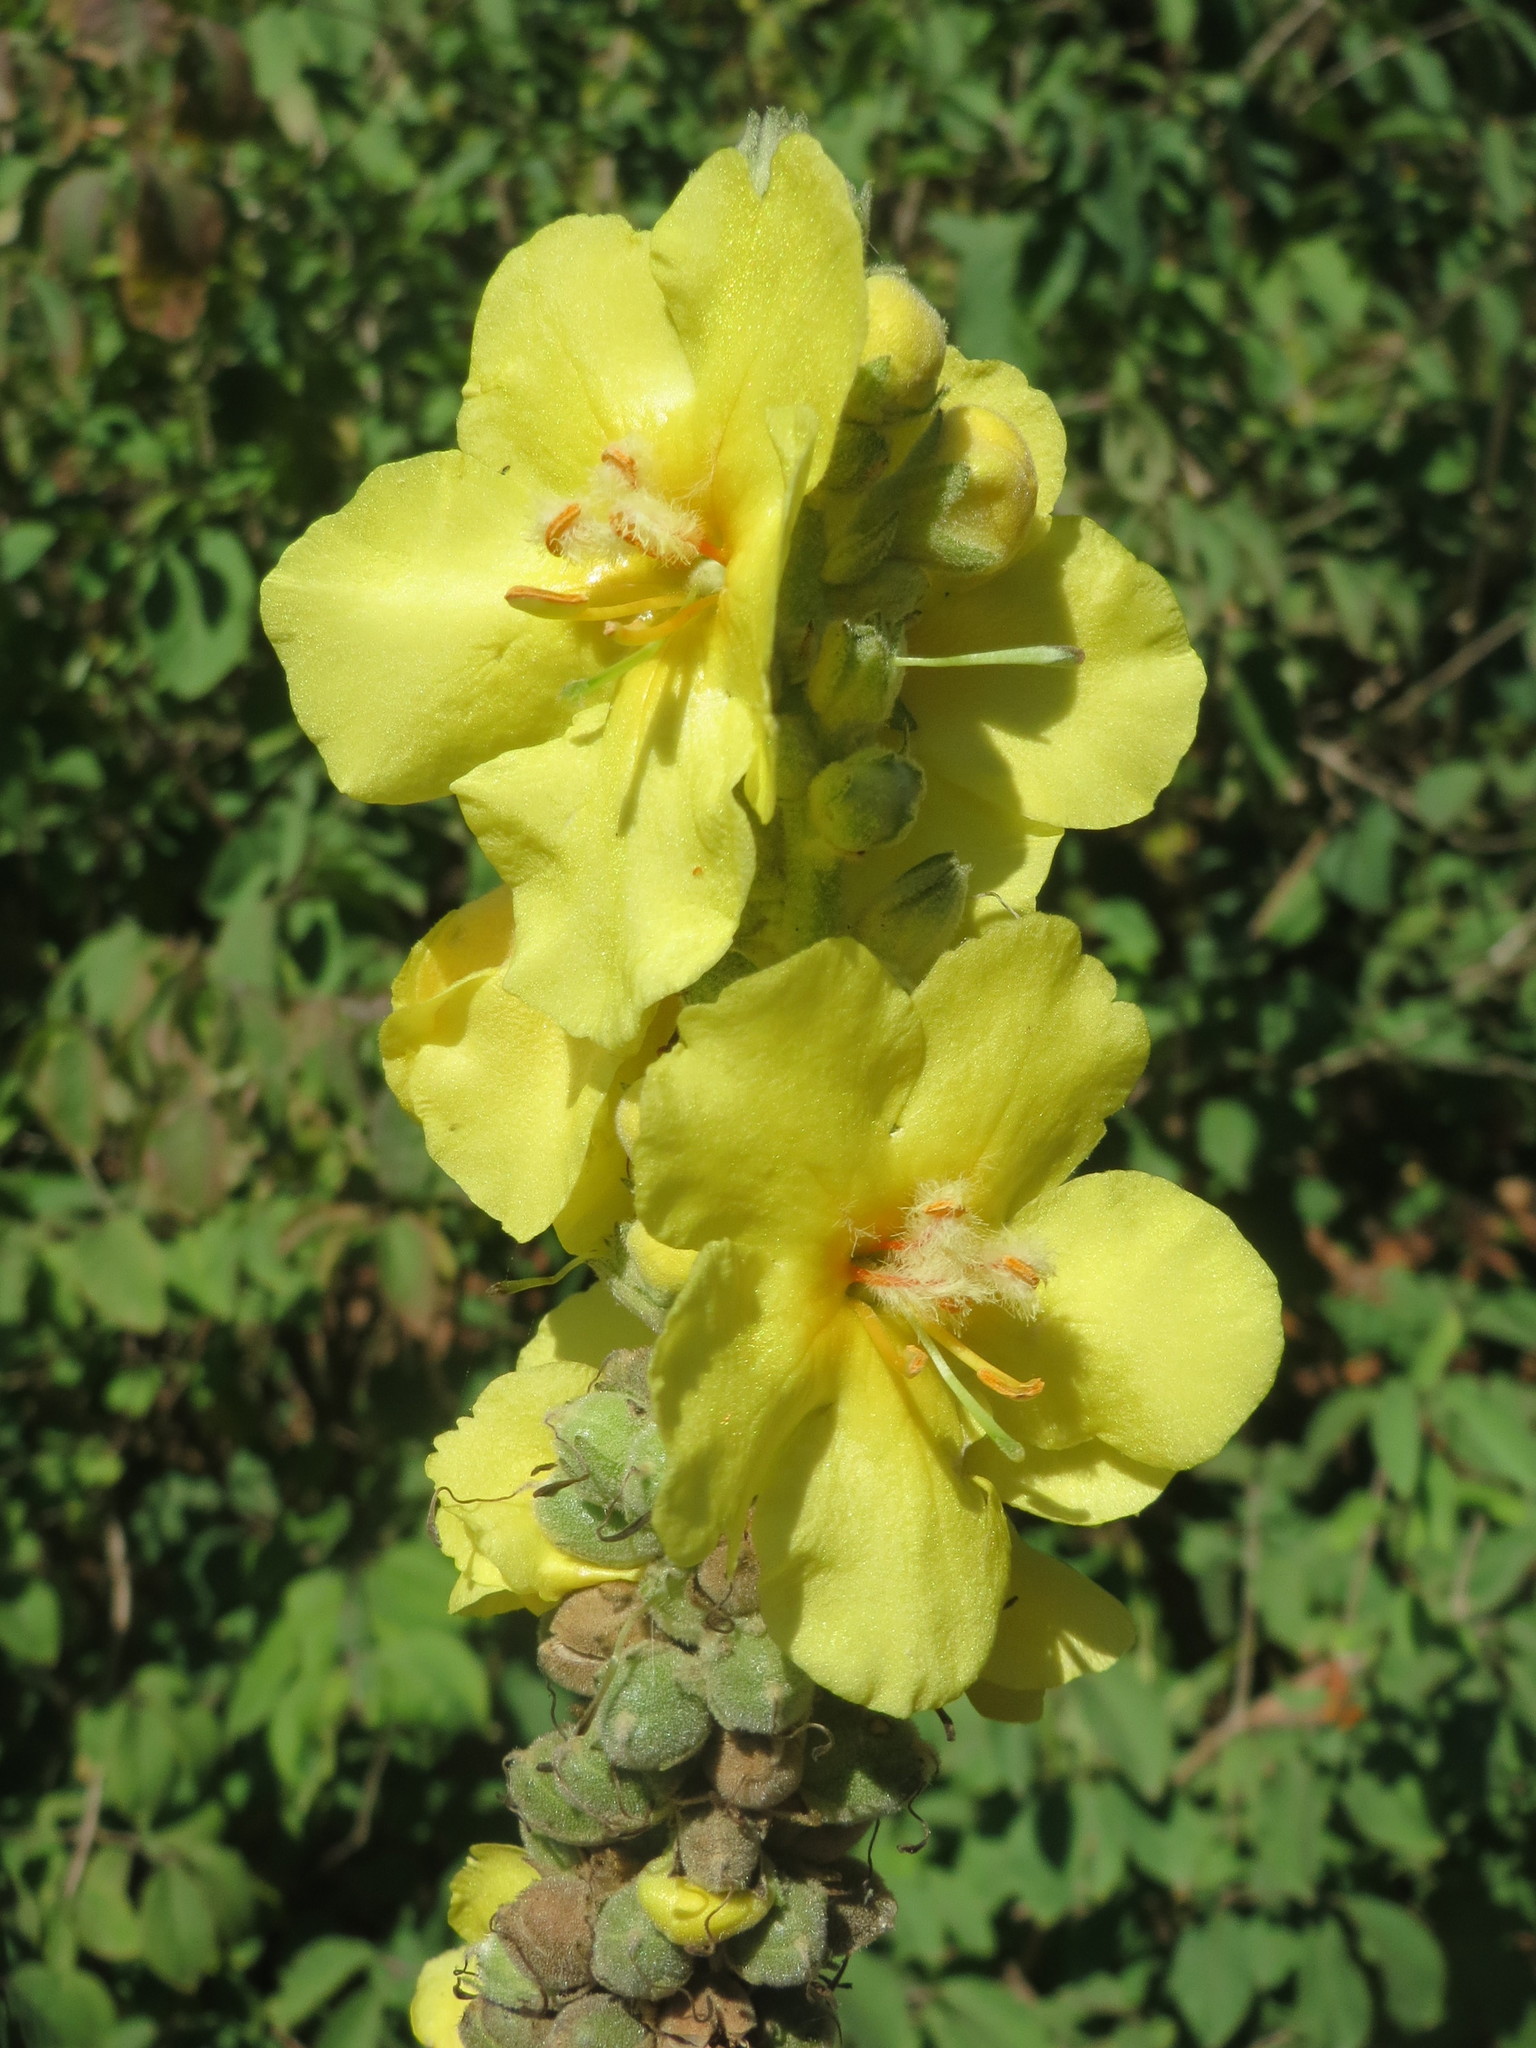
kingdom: Plantae
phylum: Tracheophyta
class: Magnoliopsida
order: Lamiales
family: Scrophulariaceae
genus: Verbascum
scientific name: Verbascum densiflorum
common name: Dense-flowered mullein
